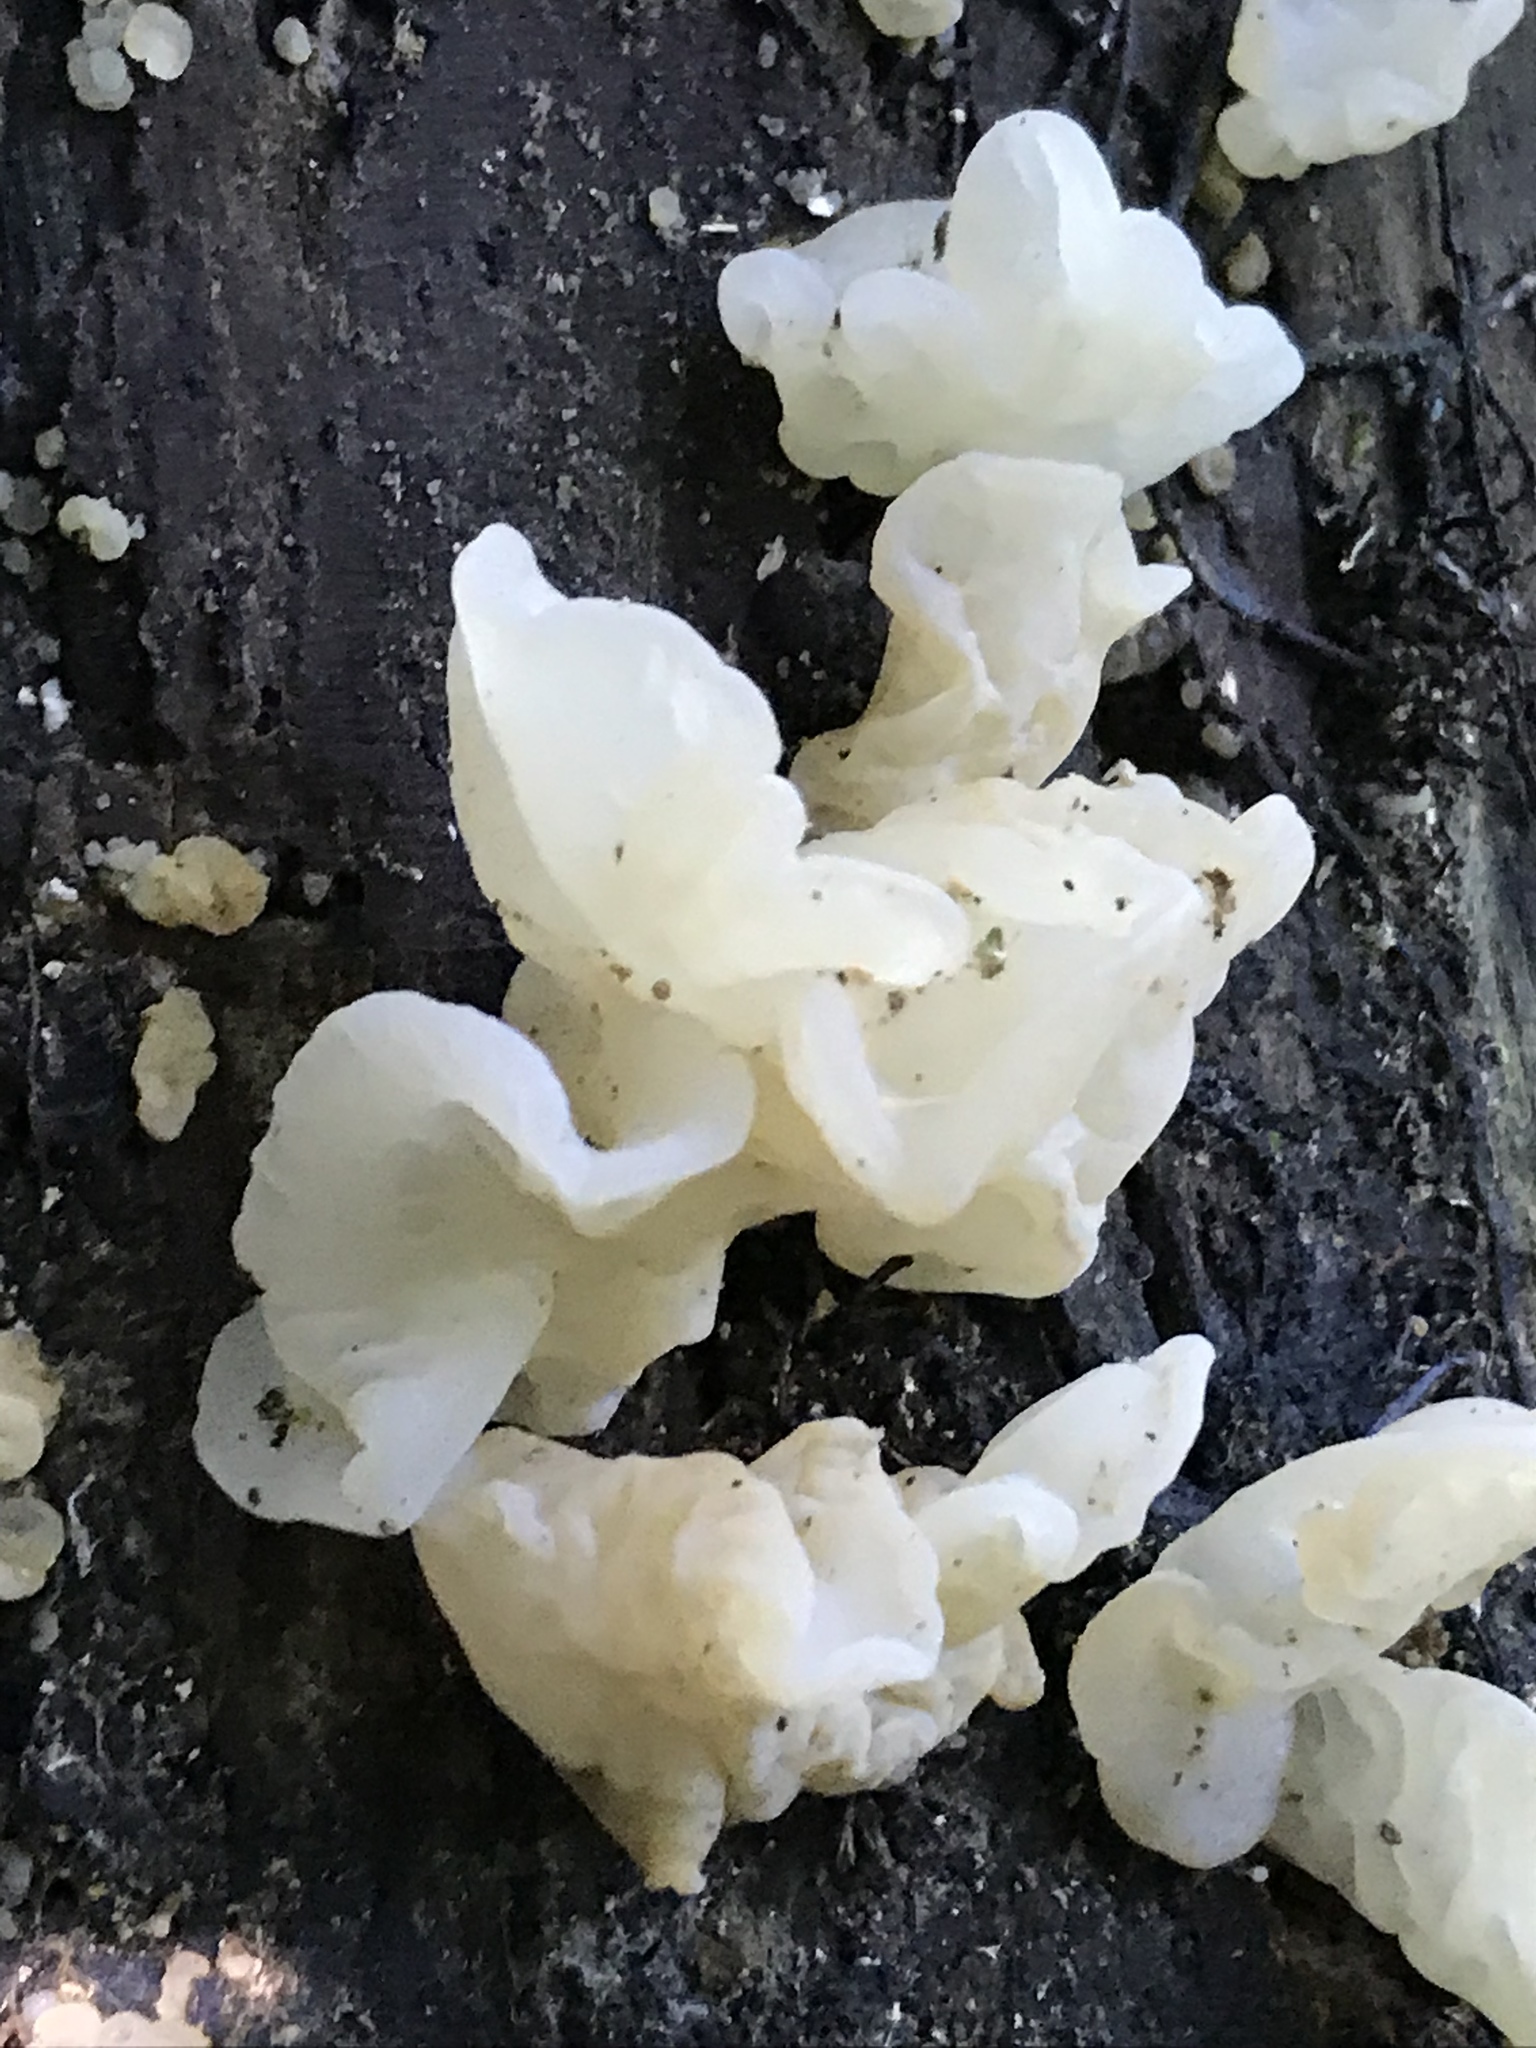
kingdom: Fungi
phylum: Basidiomycota
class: Agaricomycetes
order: Auriculariales
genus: Ductifera
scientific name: Ductifera pululahuana
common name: White jelly fungus
